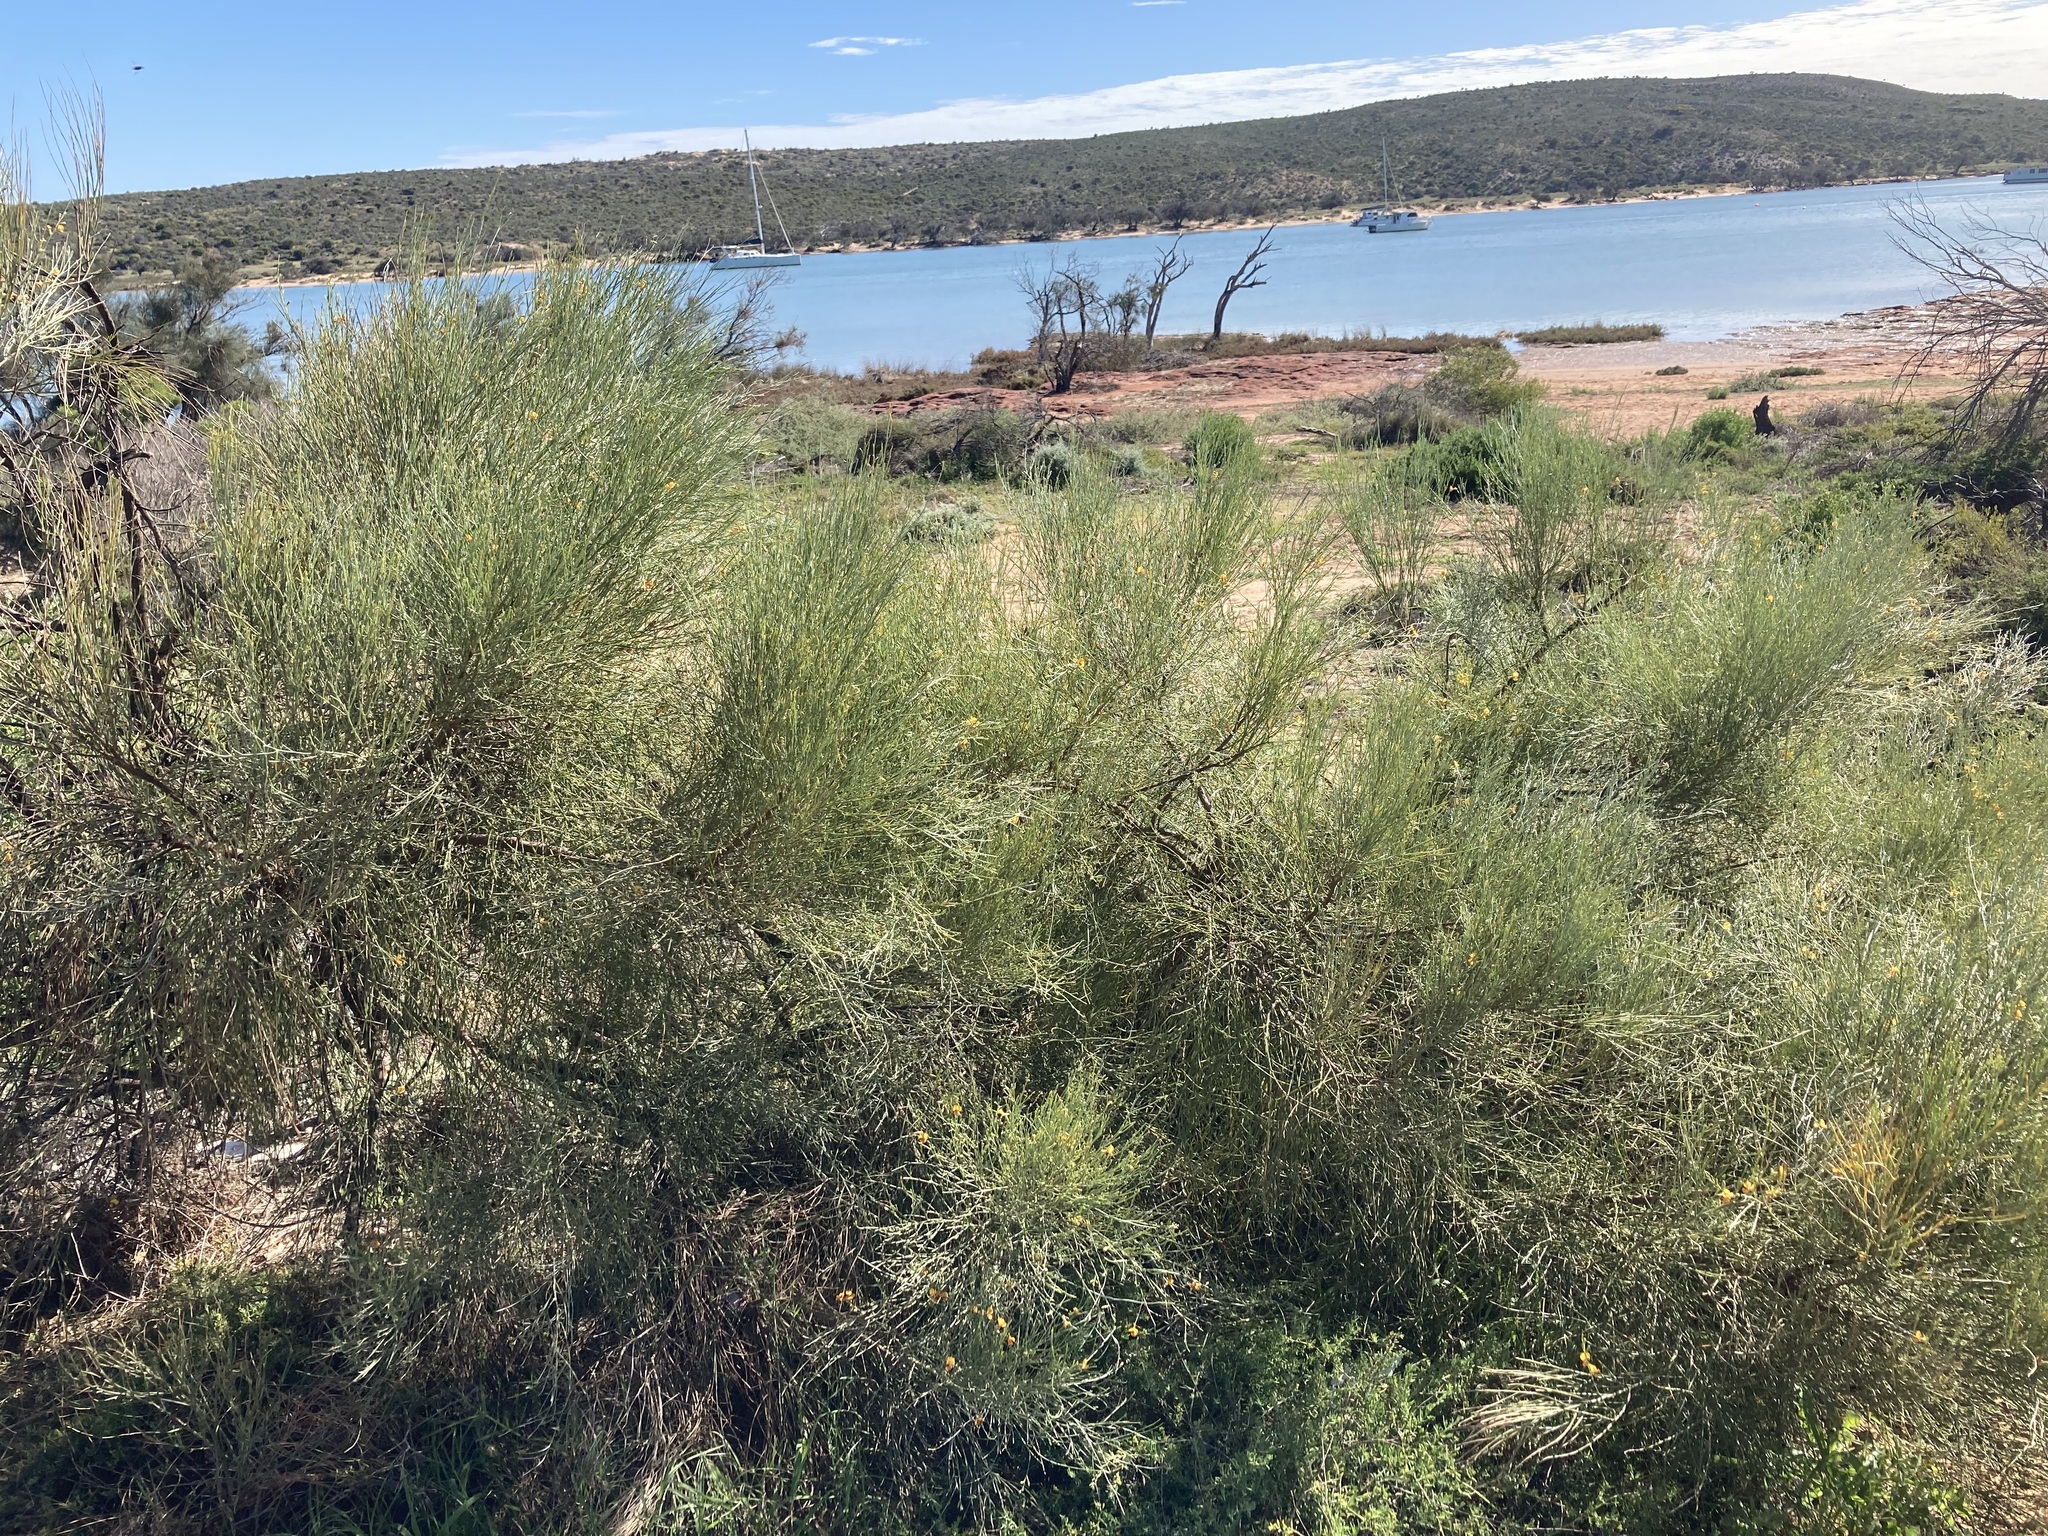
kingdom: Plantae
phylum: Tracheophyta
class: Magnoliopsida
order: Fabales
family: Fabaceae
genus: Jacksonia
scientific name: Jacksonia cupulifera
